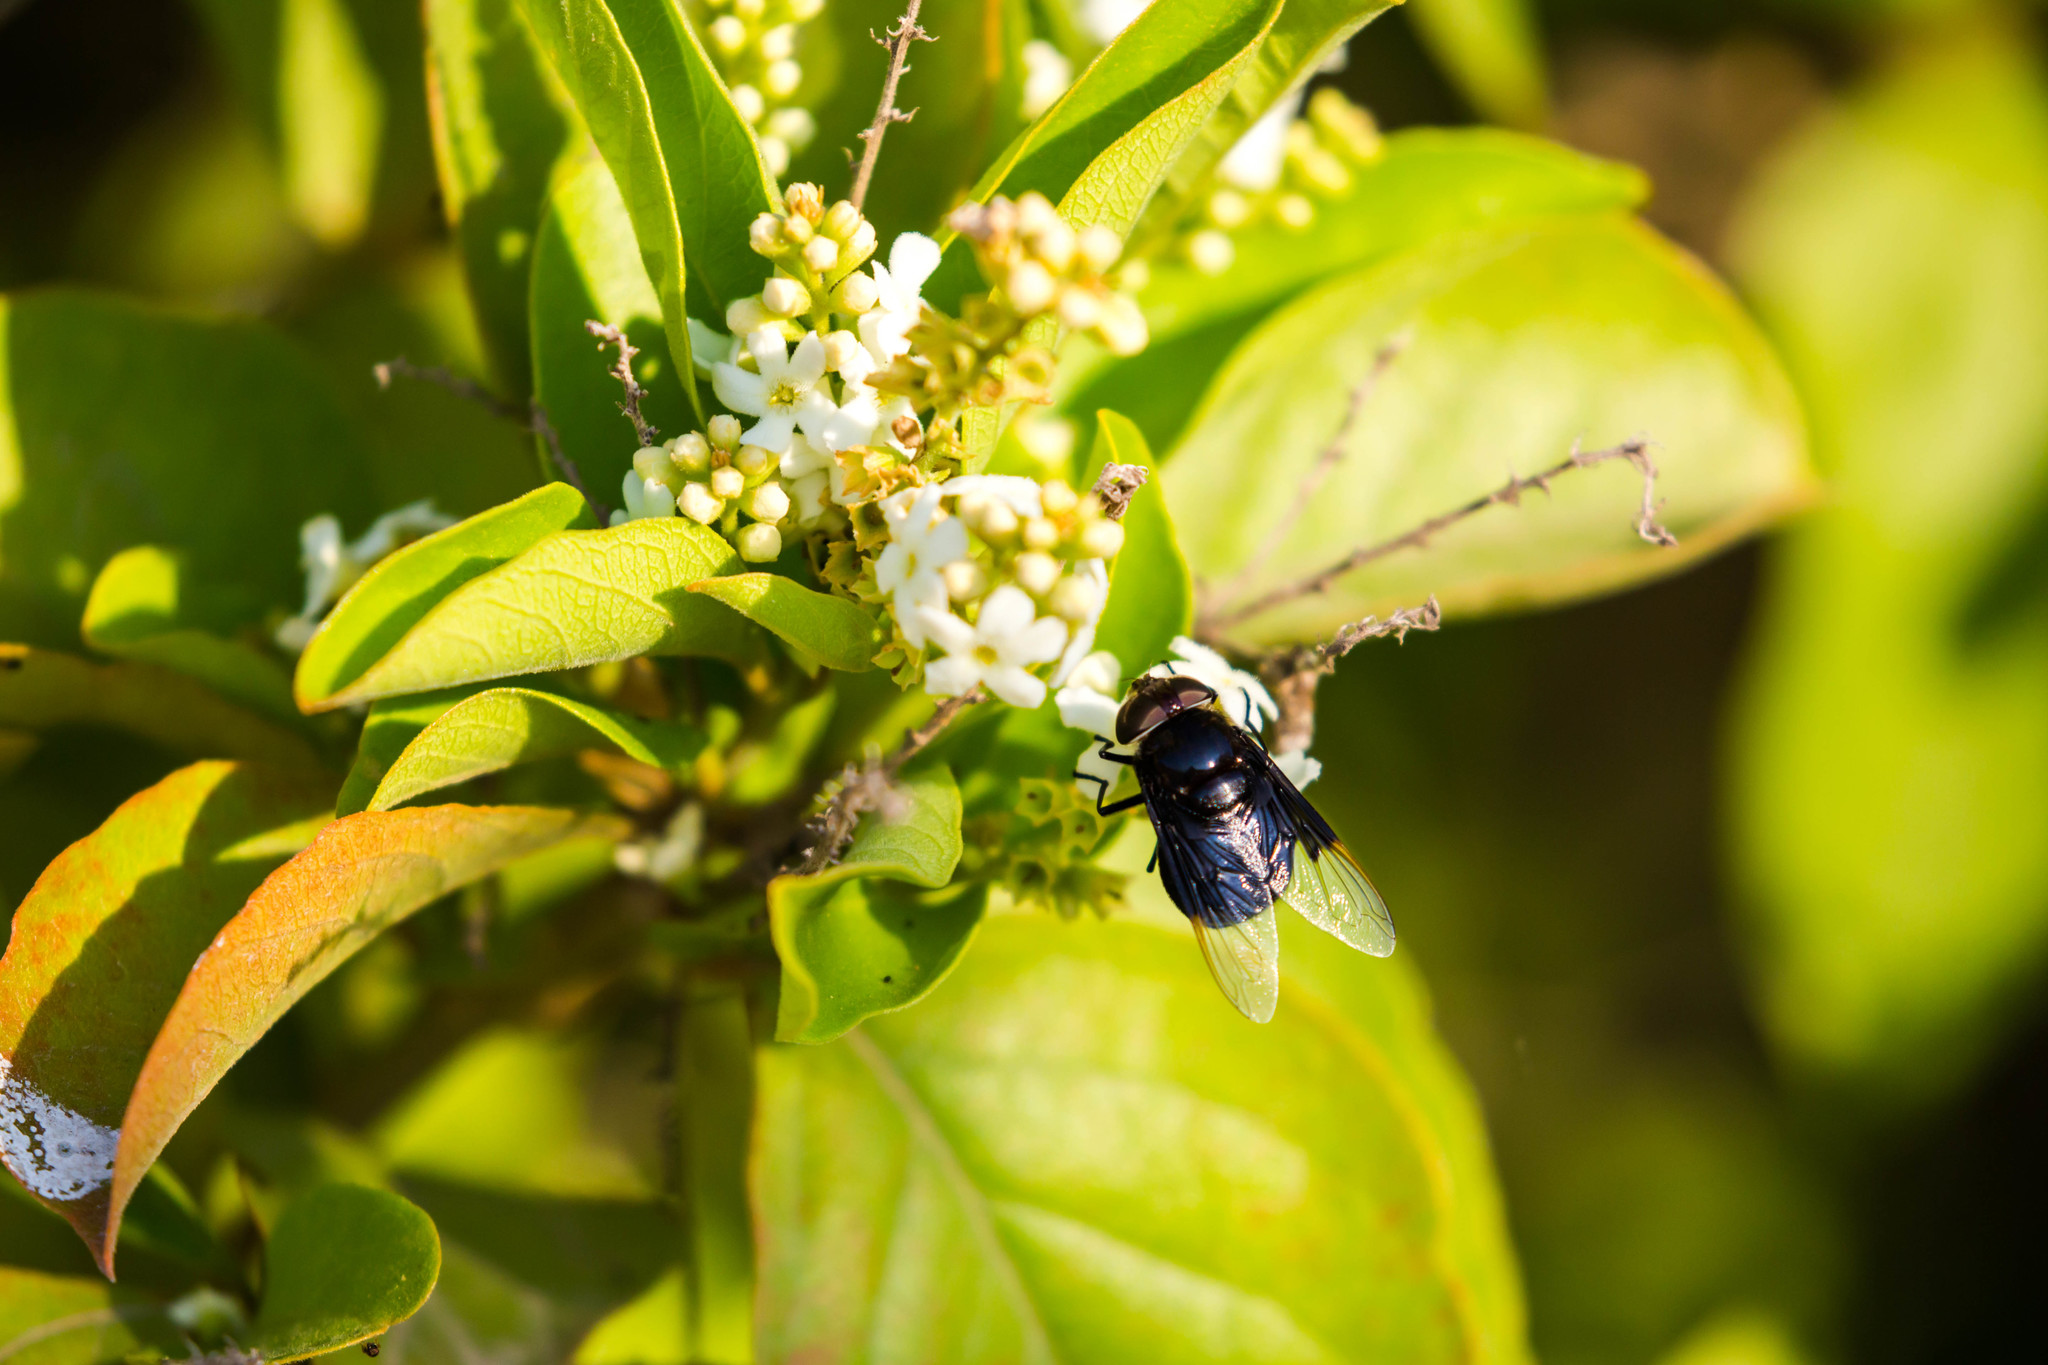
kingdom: Animalia
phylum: Arthropoda
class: Insecta
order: Diptera
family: Syrphidae
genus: Copestylum
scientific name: Copestylum mexicanum
